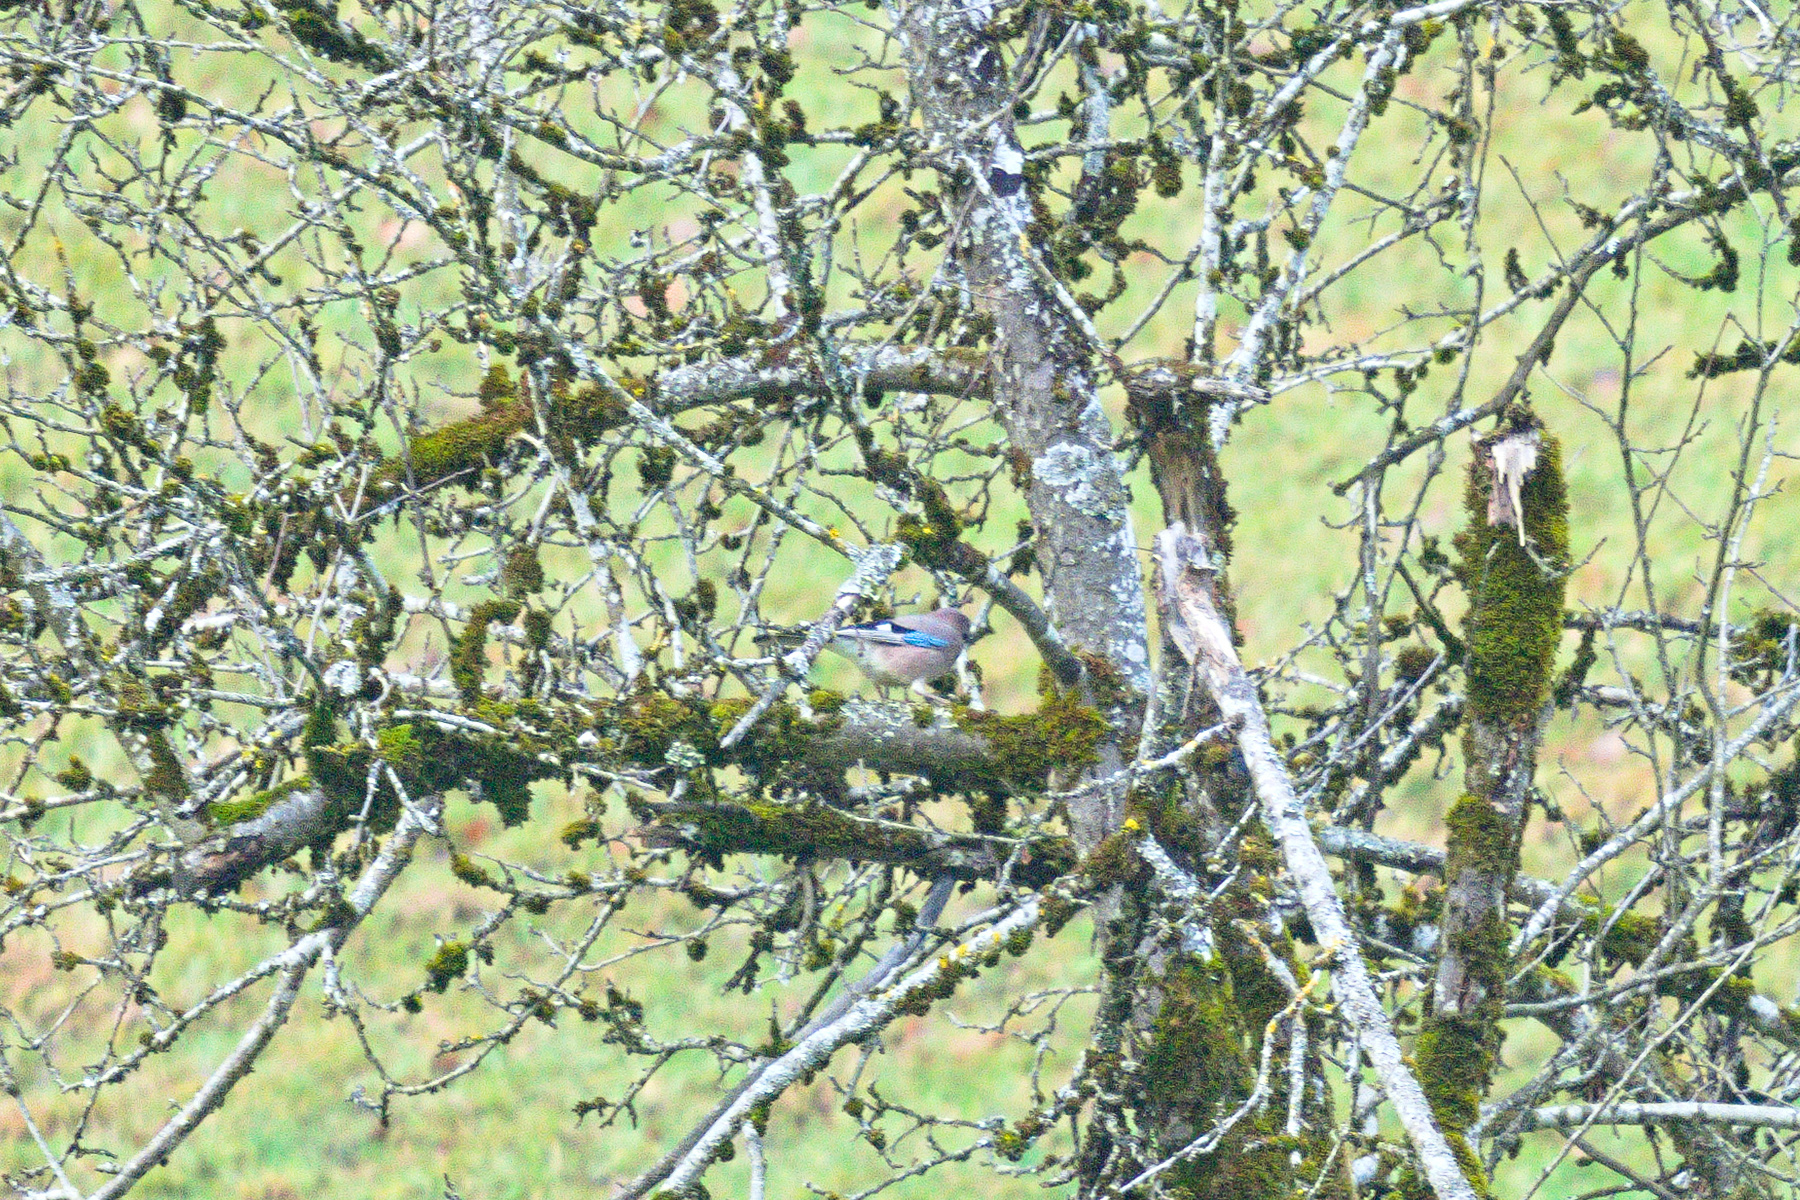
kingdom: Animalia
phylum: Chordata
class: Aves
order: Passeriformes
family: Corvidae
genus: Garrulus
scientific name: Garrulus glandarius
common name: Eurasian jay
